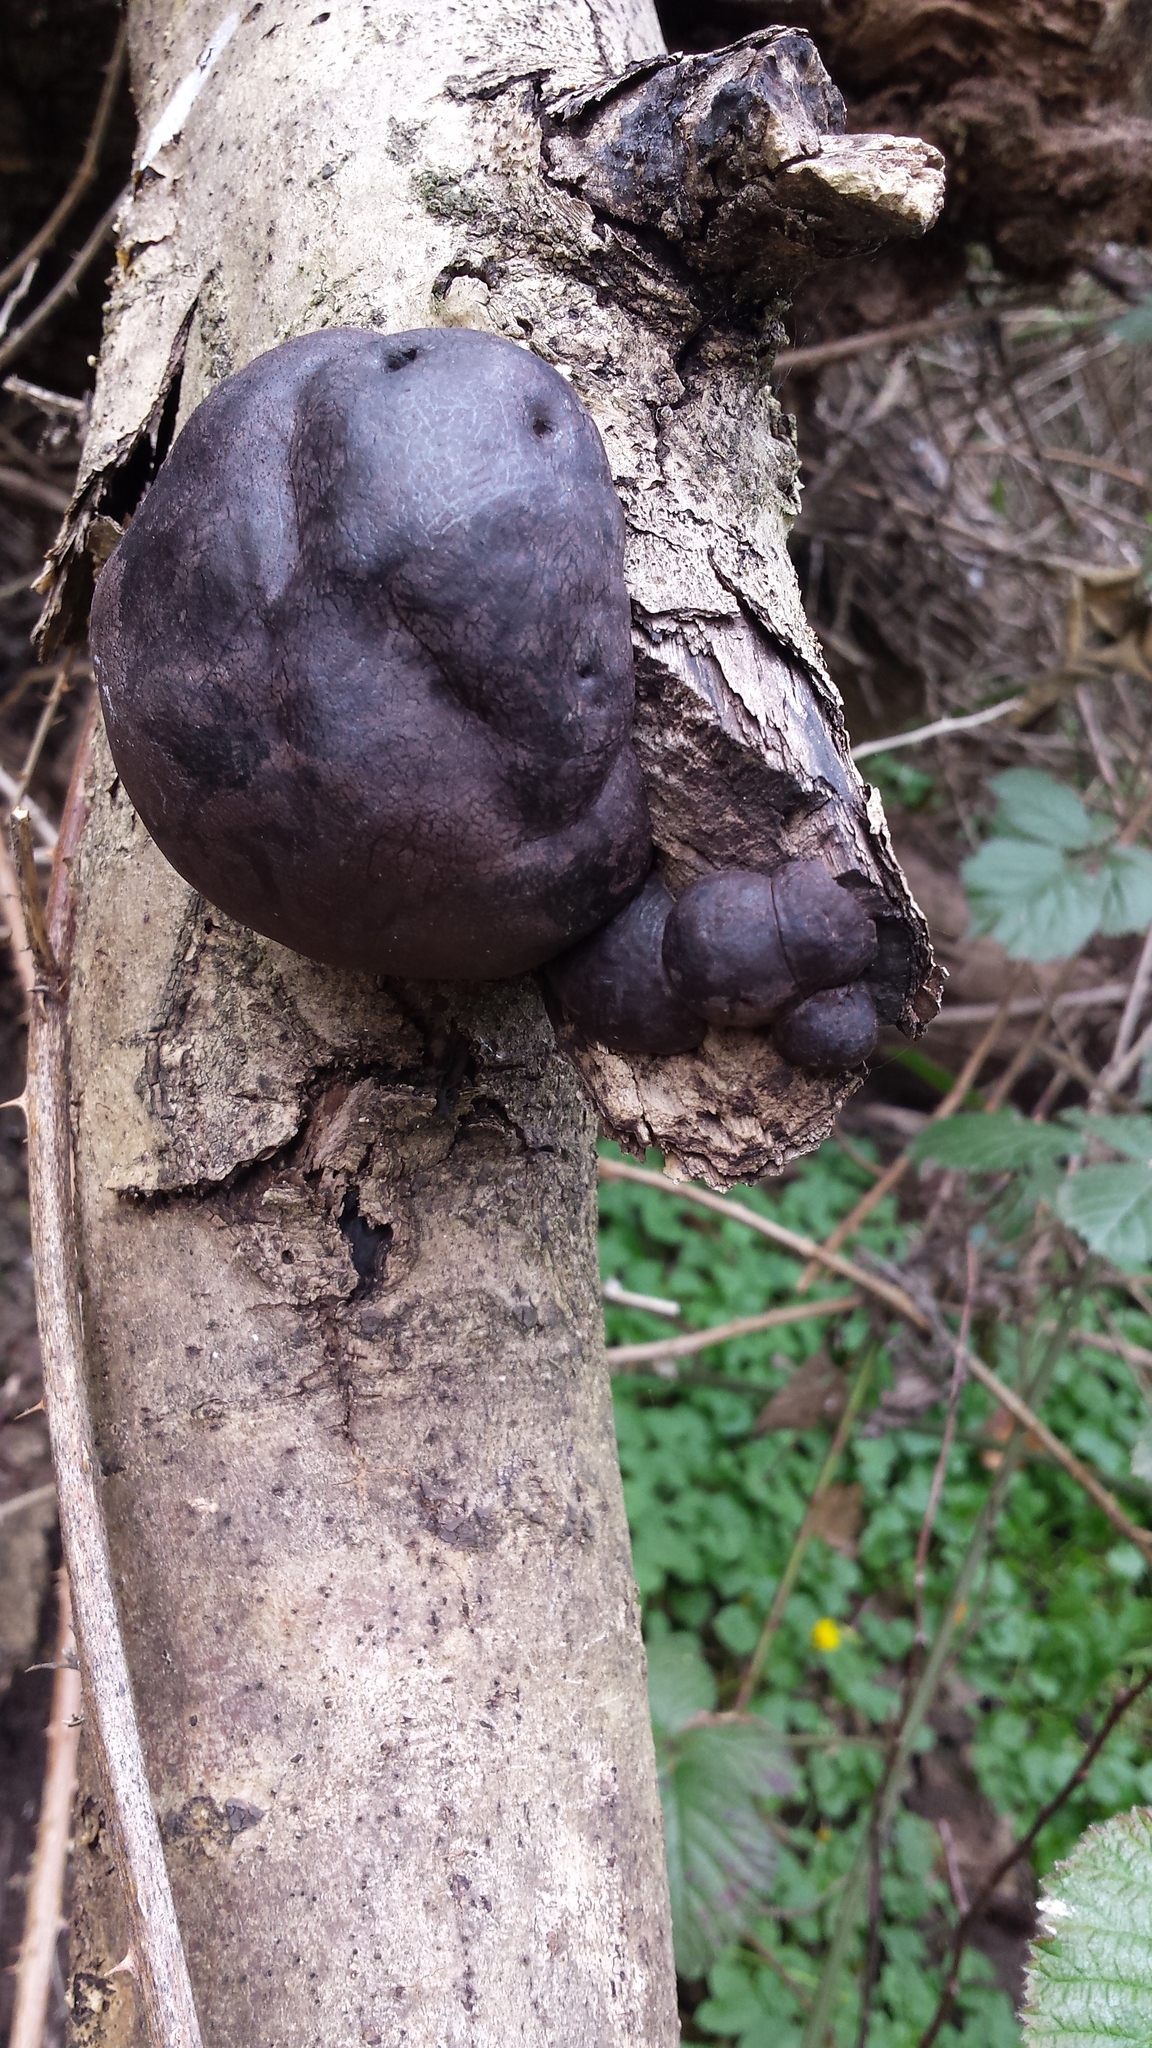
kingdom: Fungi
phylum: Ascomycota
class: Sordariomycetes
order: Xylariales
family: Hypoxylaceae
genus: Daldinia
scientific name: Daldinia concentrica
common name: Cramp balls
